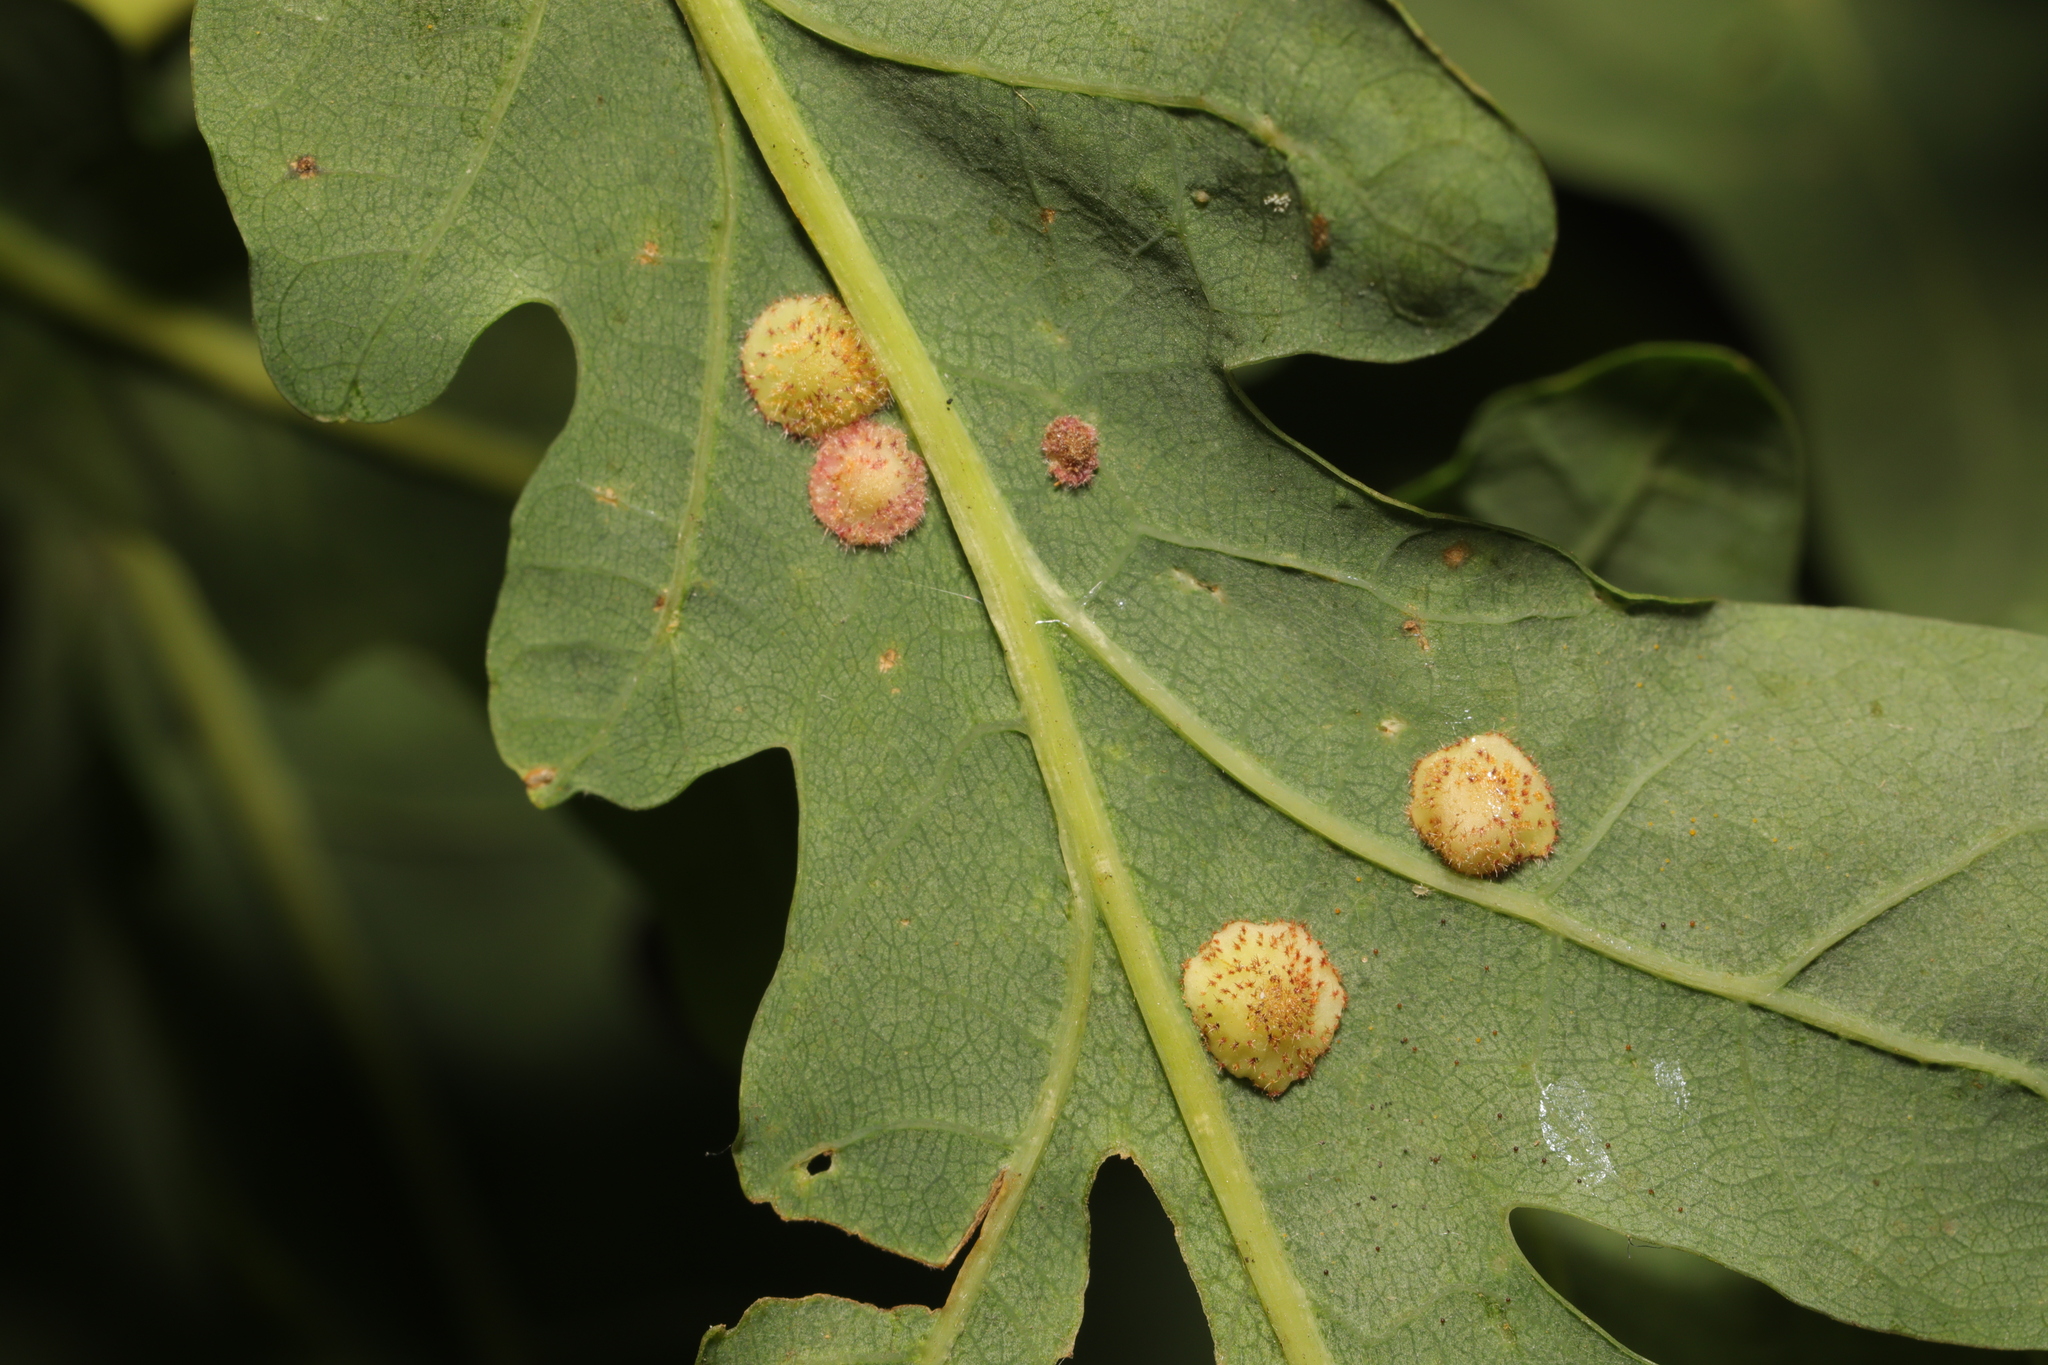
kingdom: Animalia
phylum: Arthropoda
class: Insecta
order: Hymenoptera
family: Cynipidae
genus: Neuroterus
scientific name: Neuroterus quercusbaccarum
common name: Common spangle gall
